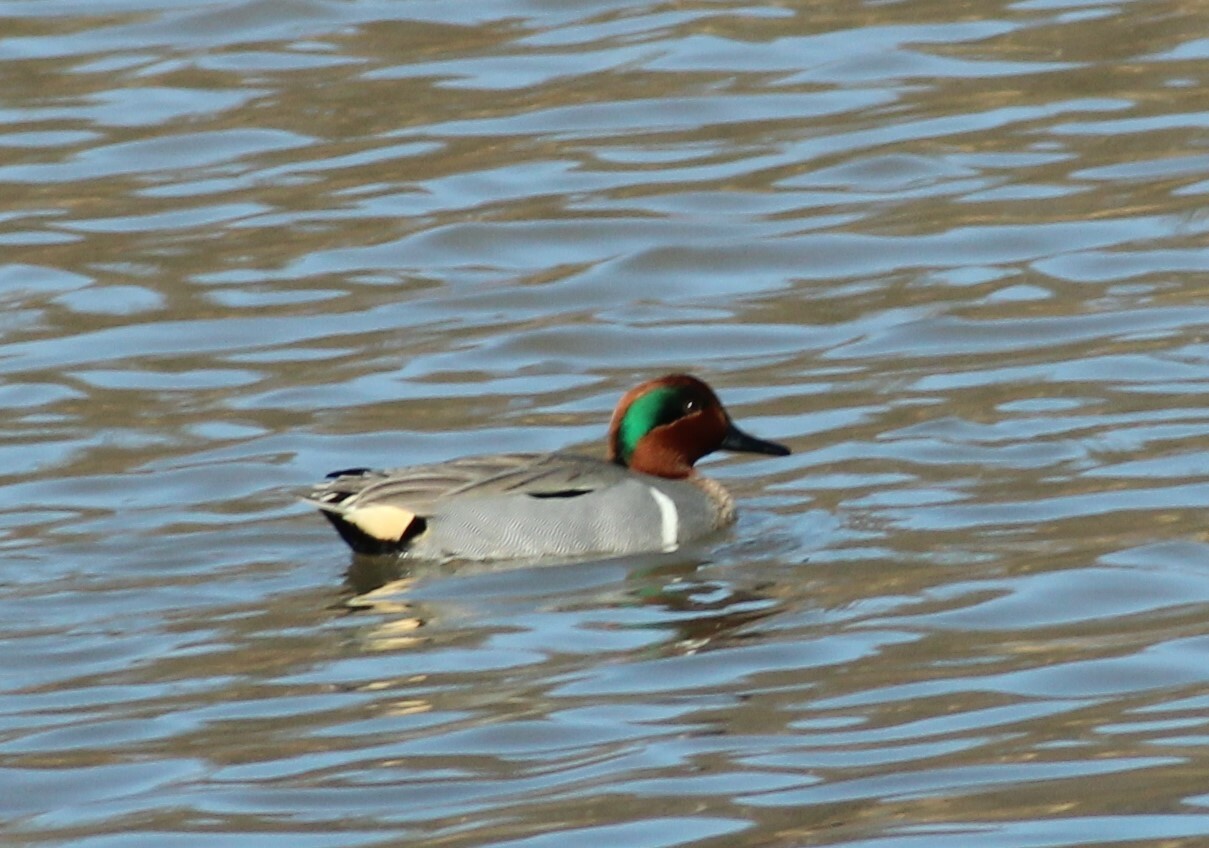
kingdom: Animalia
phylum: Chordata
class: Aves
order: Anseriformes
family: Anatidae
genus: Anas
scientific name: Anas crecca
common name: Eurasian teal
